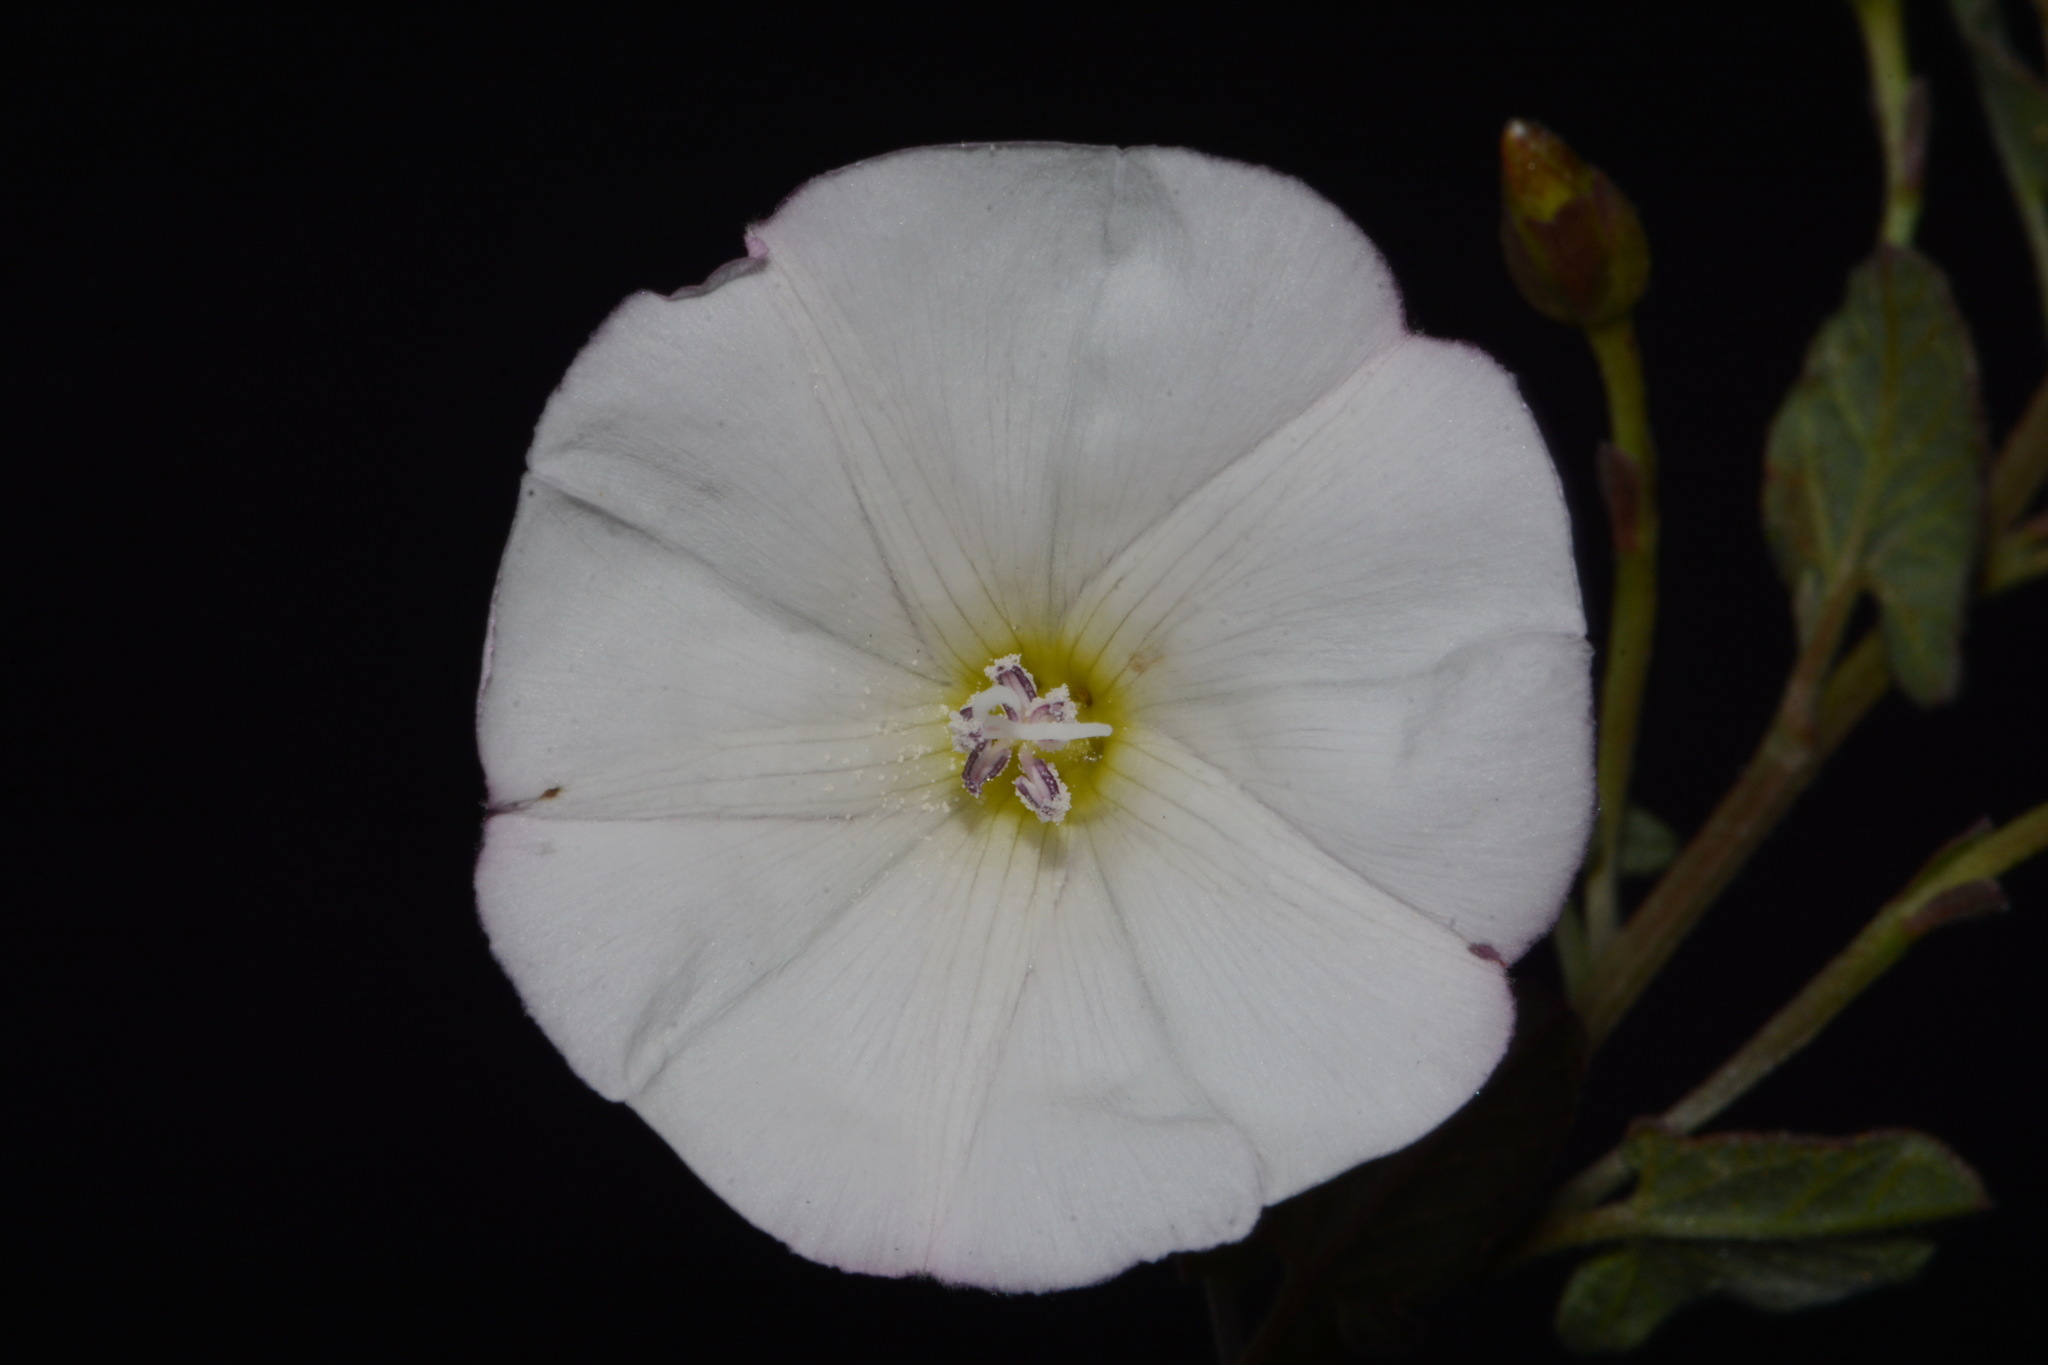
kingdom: Plantae
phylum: Tracheophyta
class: Magnoliopsida
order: Solanales
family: Convolvulaceae
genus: Convolvulus
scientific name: Convolvulus arvensis
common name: Field bindweed
